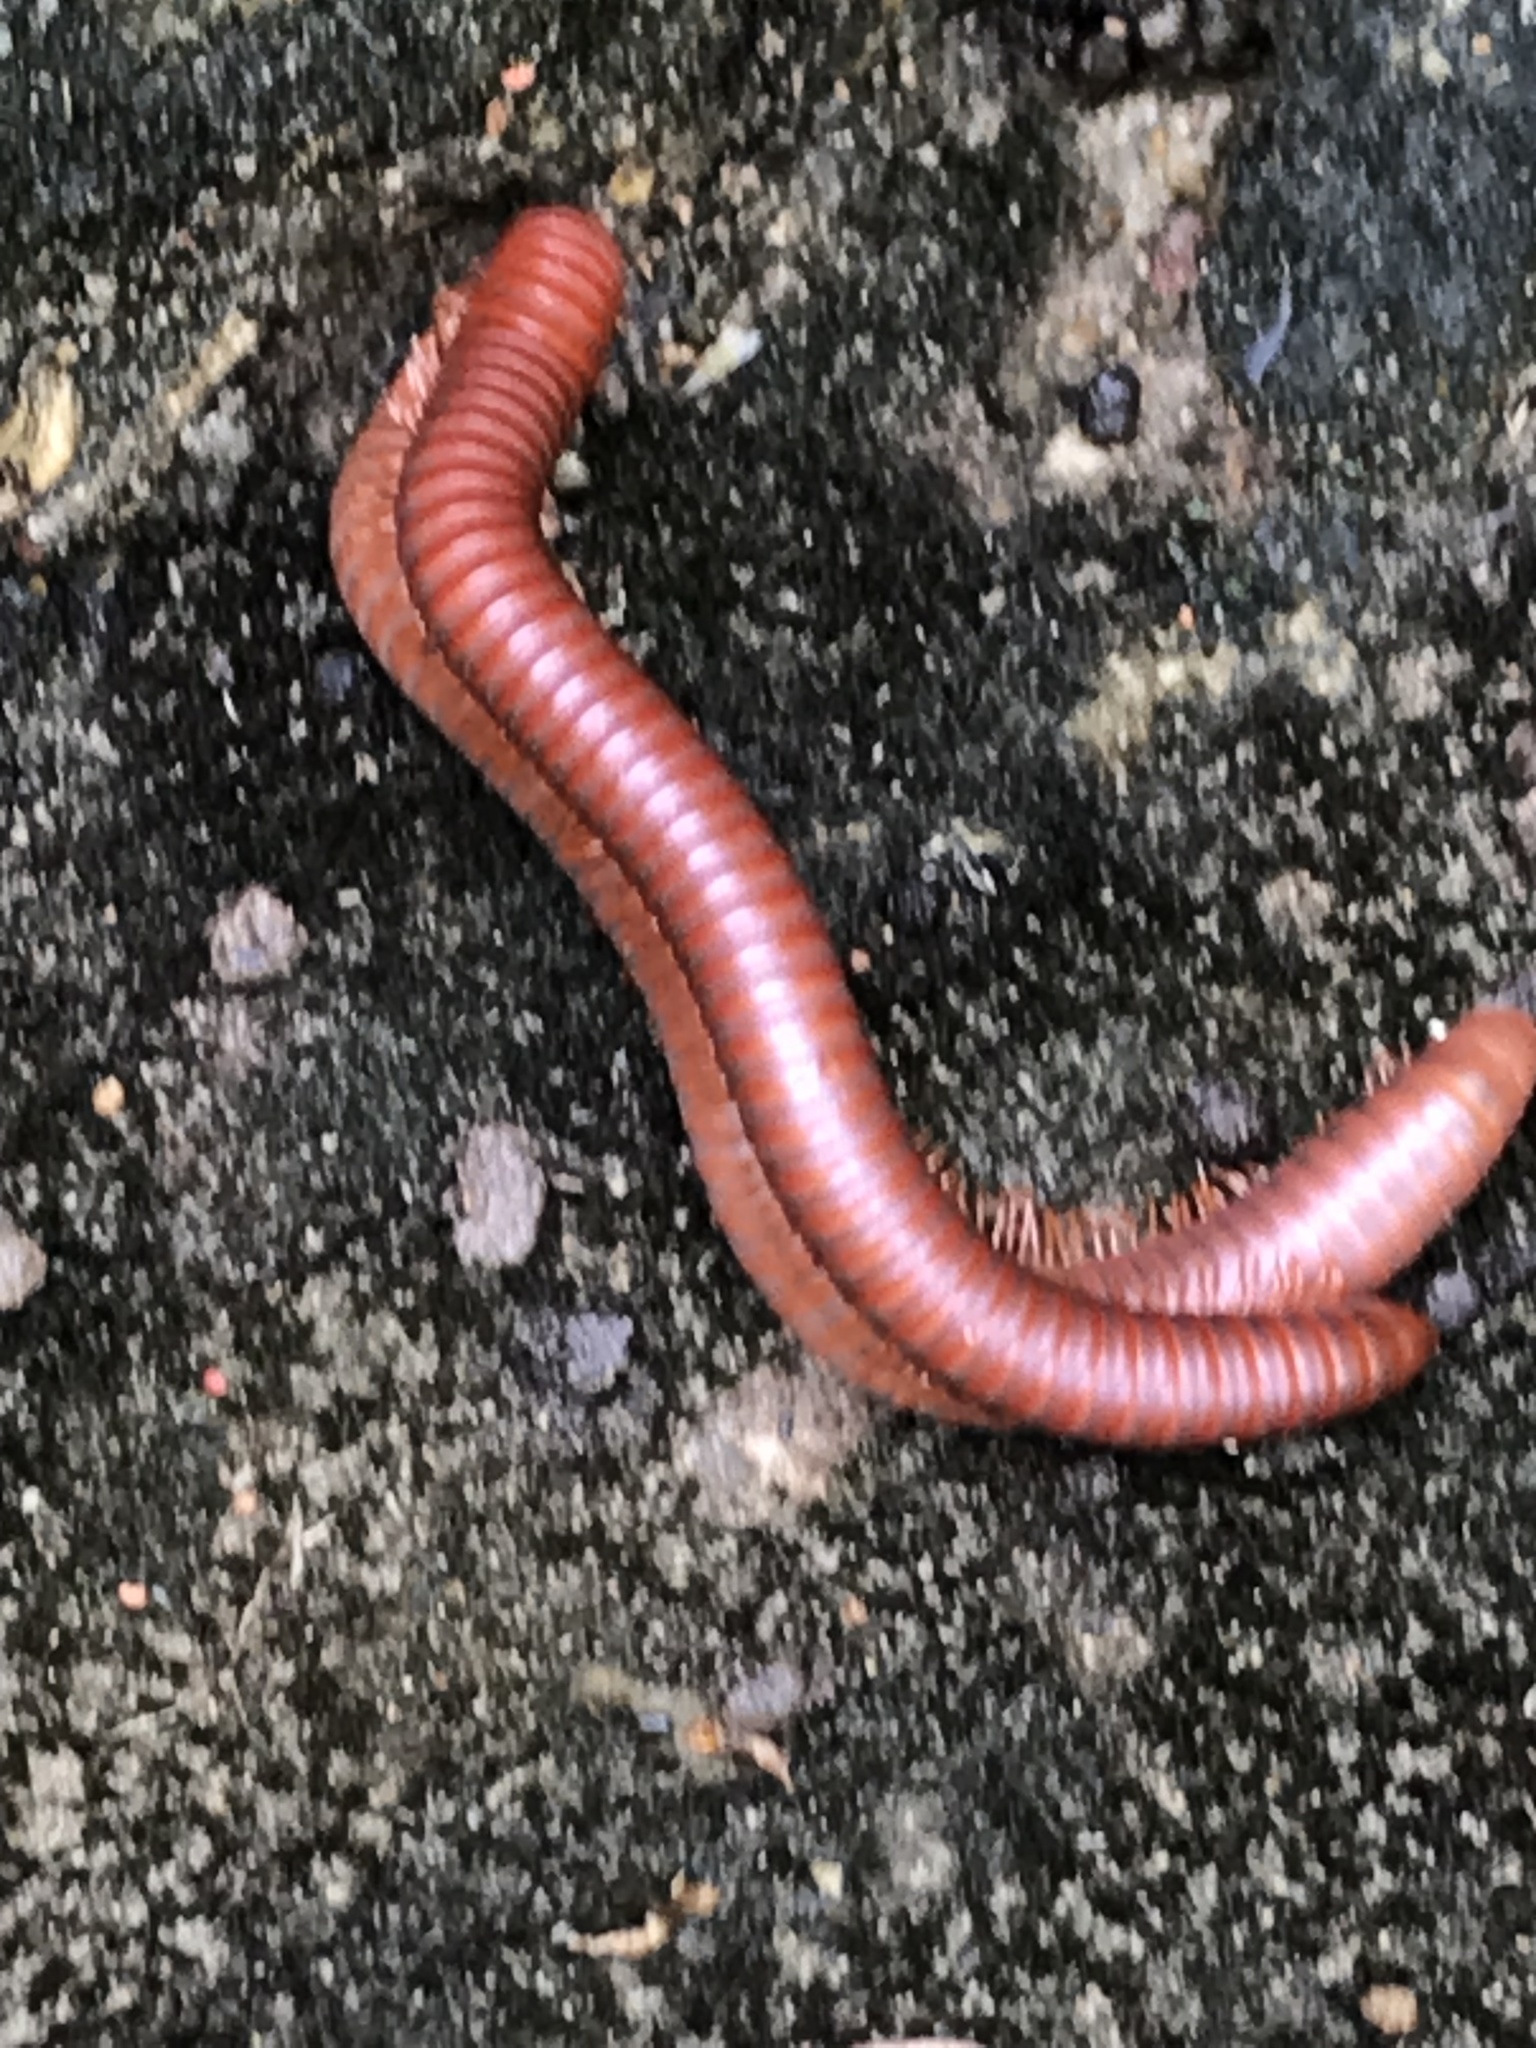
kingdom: Animalia
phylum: Arthropoda
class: Diplopoda
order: Spirobolida
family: Pachybolidae
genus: Trigoniulus
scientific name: Trigoniulus corallinus
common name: Millipede
